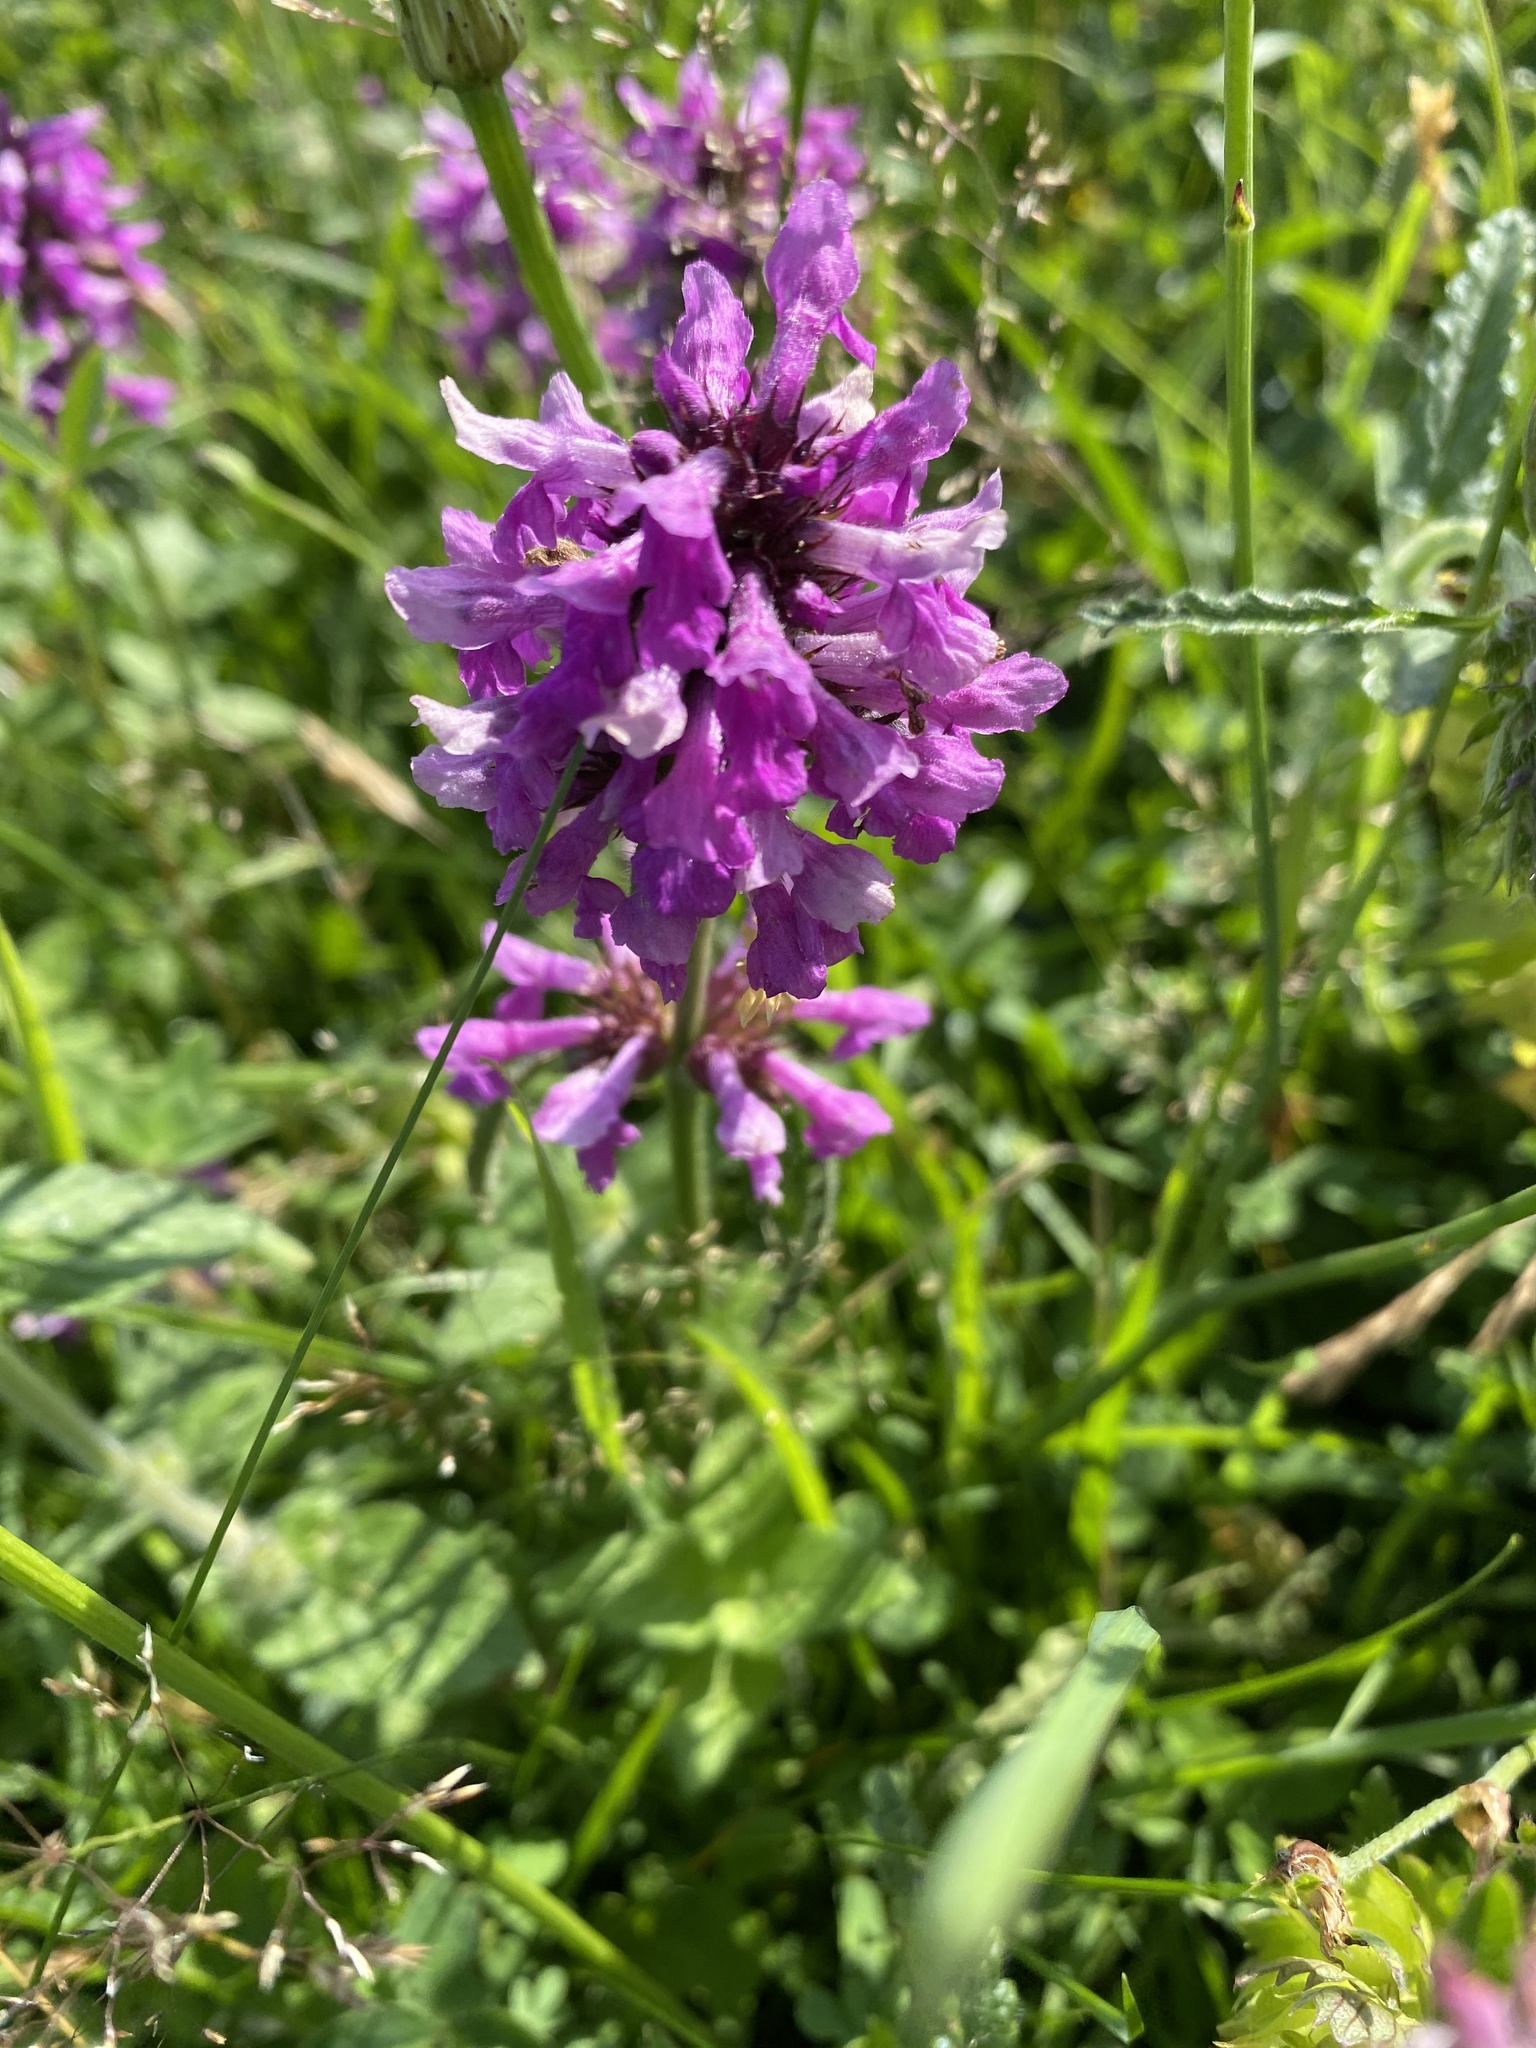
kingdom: Plantae
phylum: Tracheophyta
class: Magnoliopsida
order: Lamiales
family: Lamiaceae
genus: Betonica
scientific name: Betonica officinalis
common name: Bishop's-wort
